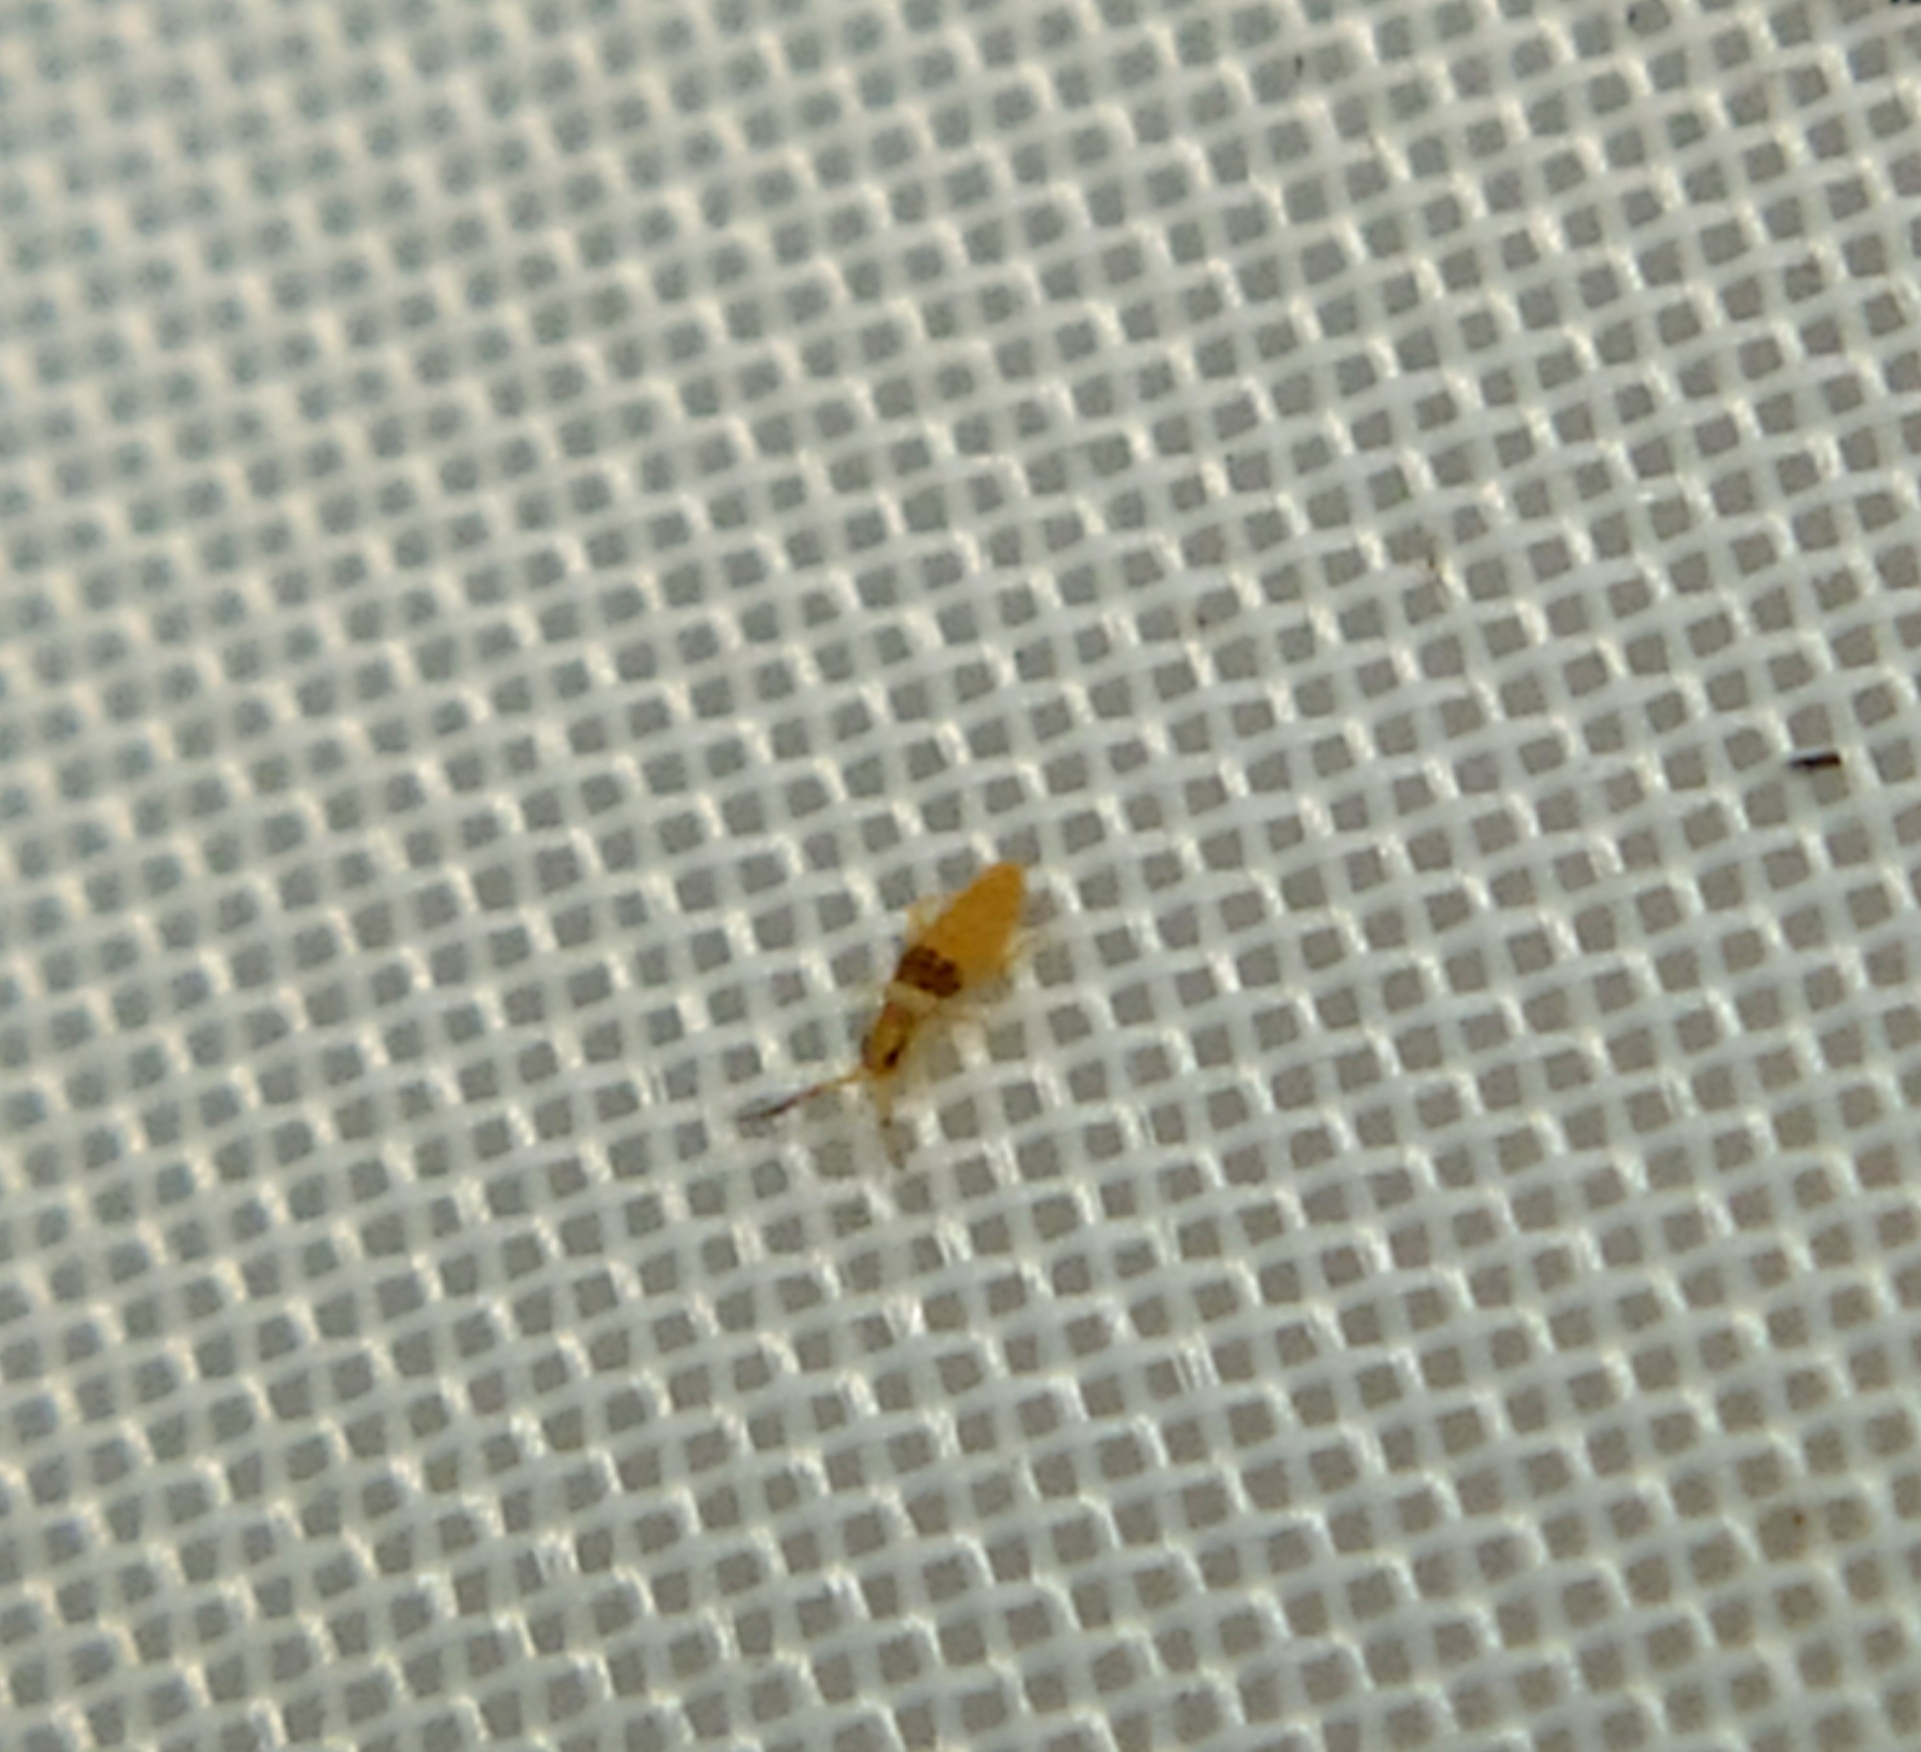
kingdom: Animalia
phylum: Arthropoda
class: Collembola
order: Entomobryomorpha
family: Entomobryidae
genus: Entomobrya
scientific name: Entomobrya nigrocincta
